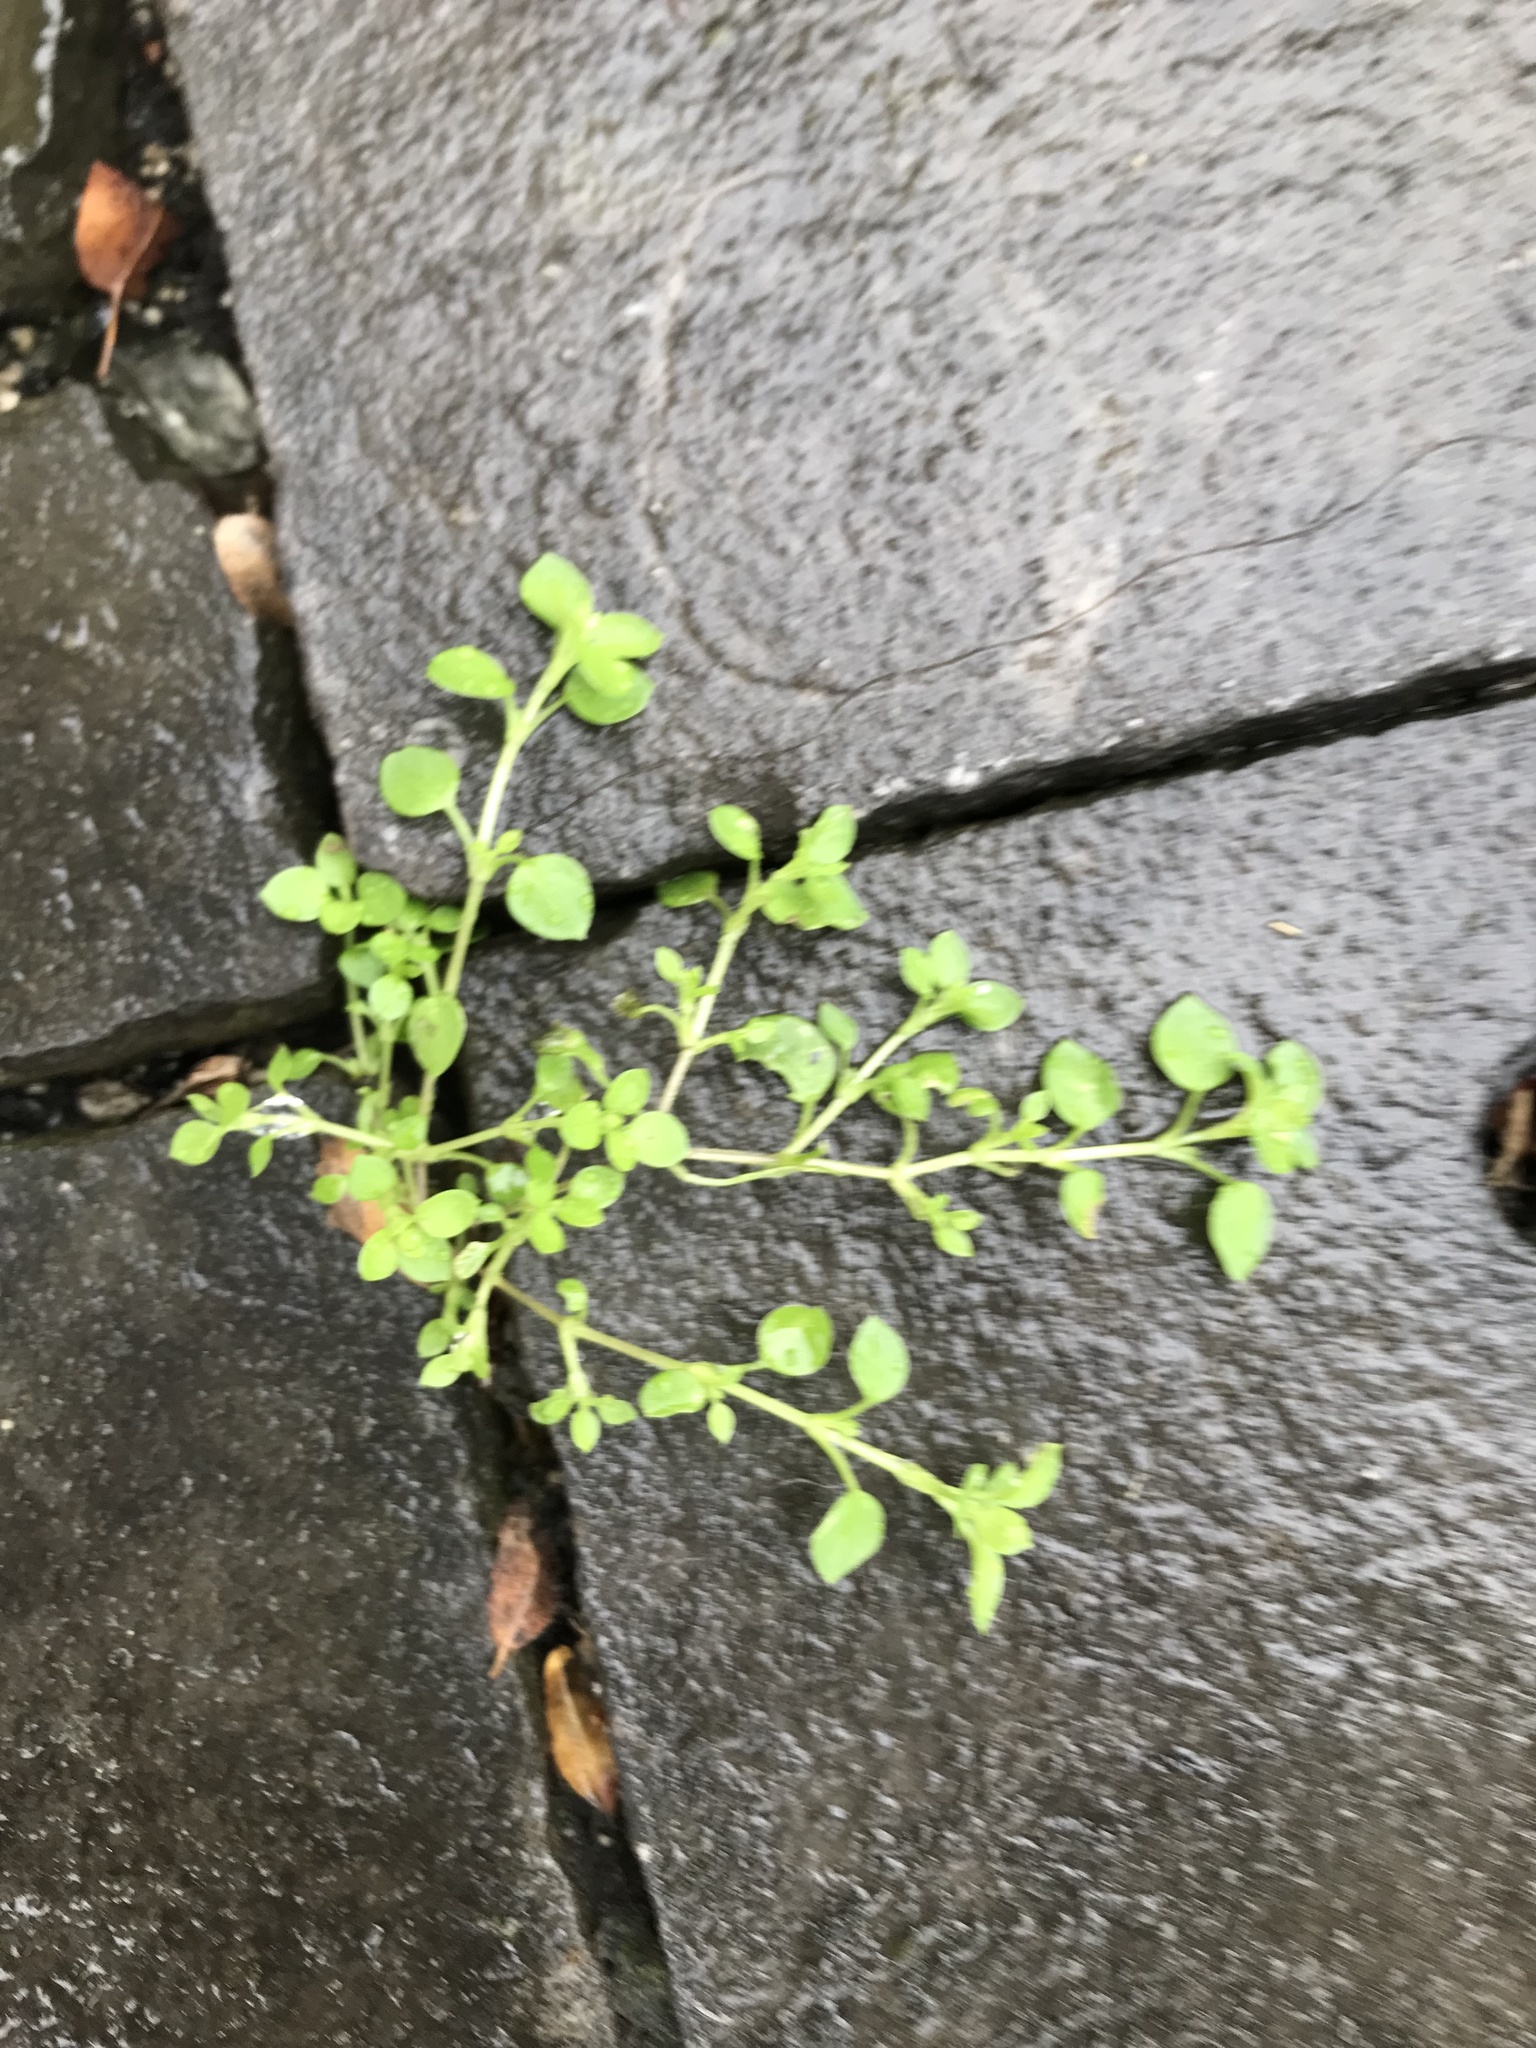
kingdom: Plantae
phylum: Tracheophyta
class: Magnoliopsida
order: Caryophyllales
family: Caryophyllaceae
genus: Stellaria
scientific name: Stellaria media
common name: Common chickweed
